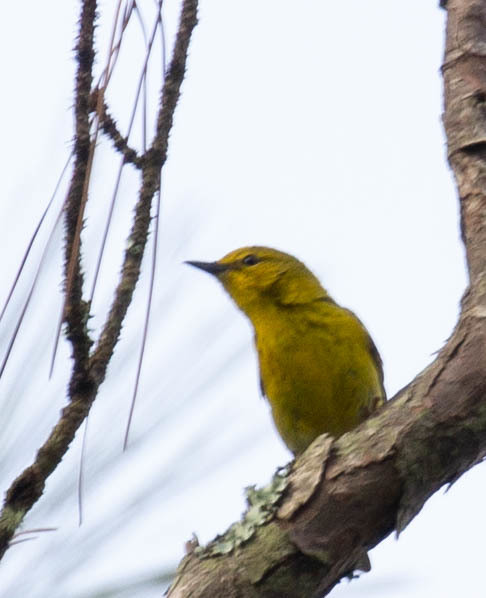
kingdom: Animalia
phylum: Chordata
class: Aves
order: Passeriformes
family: Parulidae
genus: Setophaga
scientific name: Setophaga pinus
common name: Pine warbler
